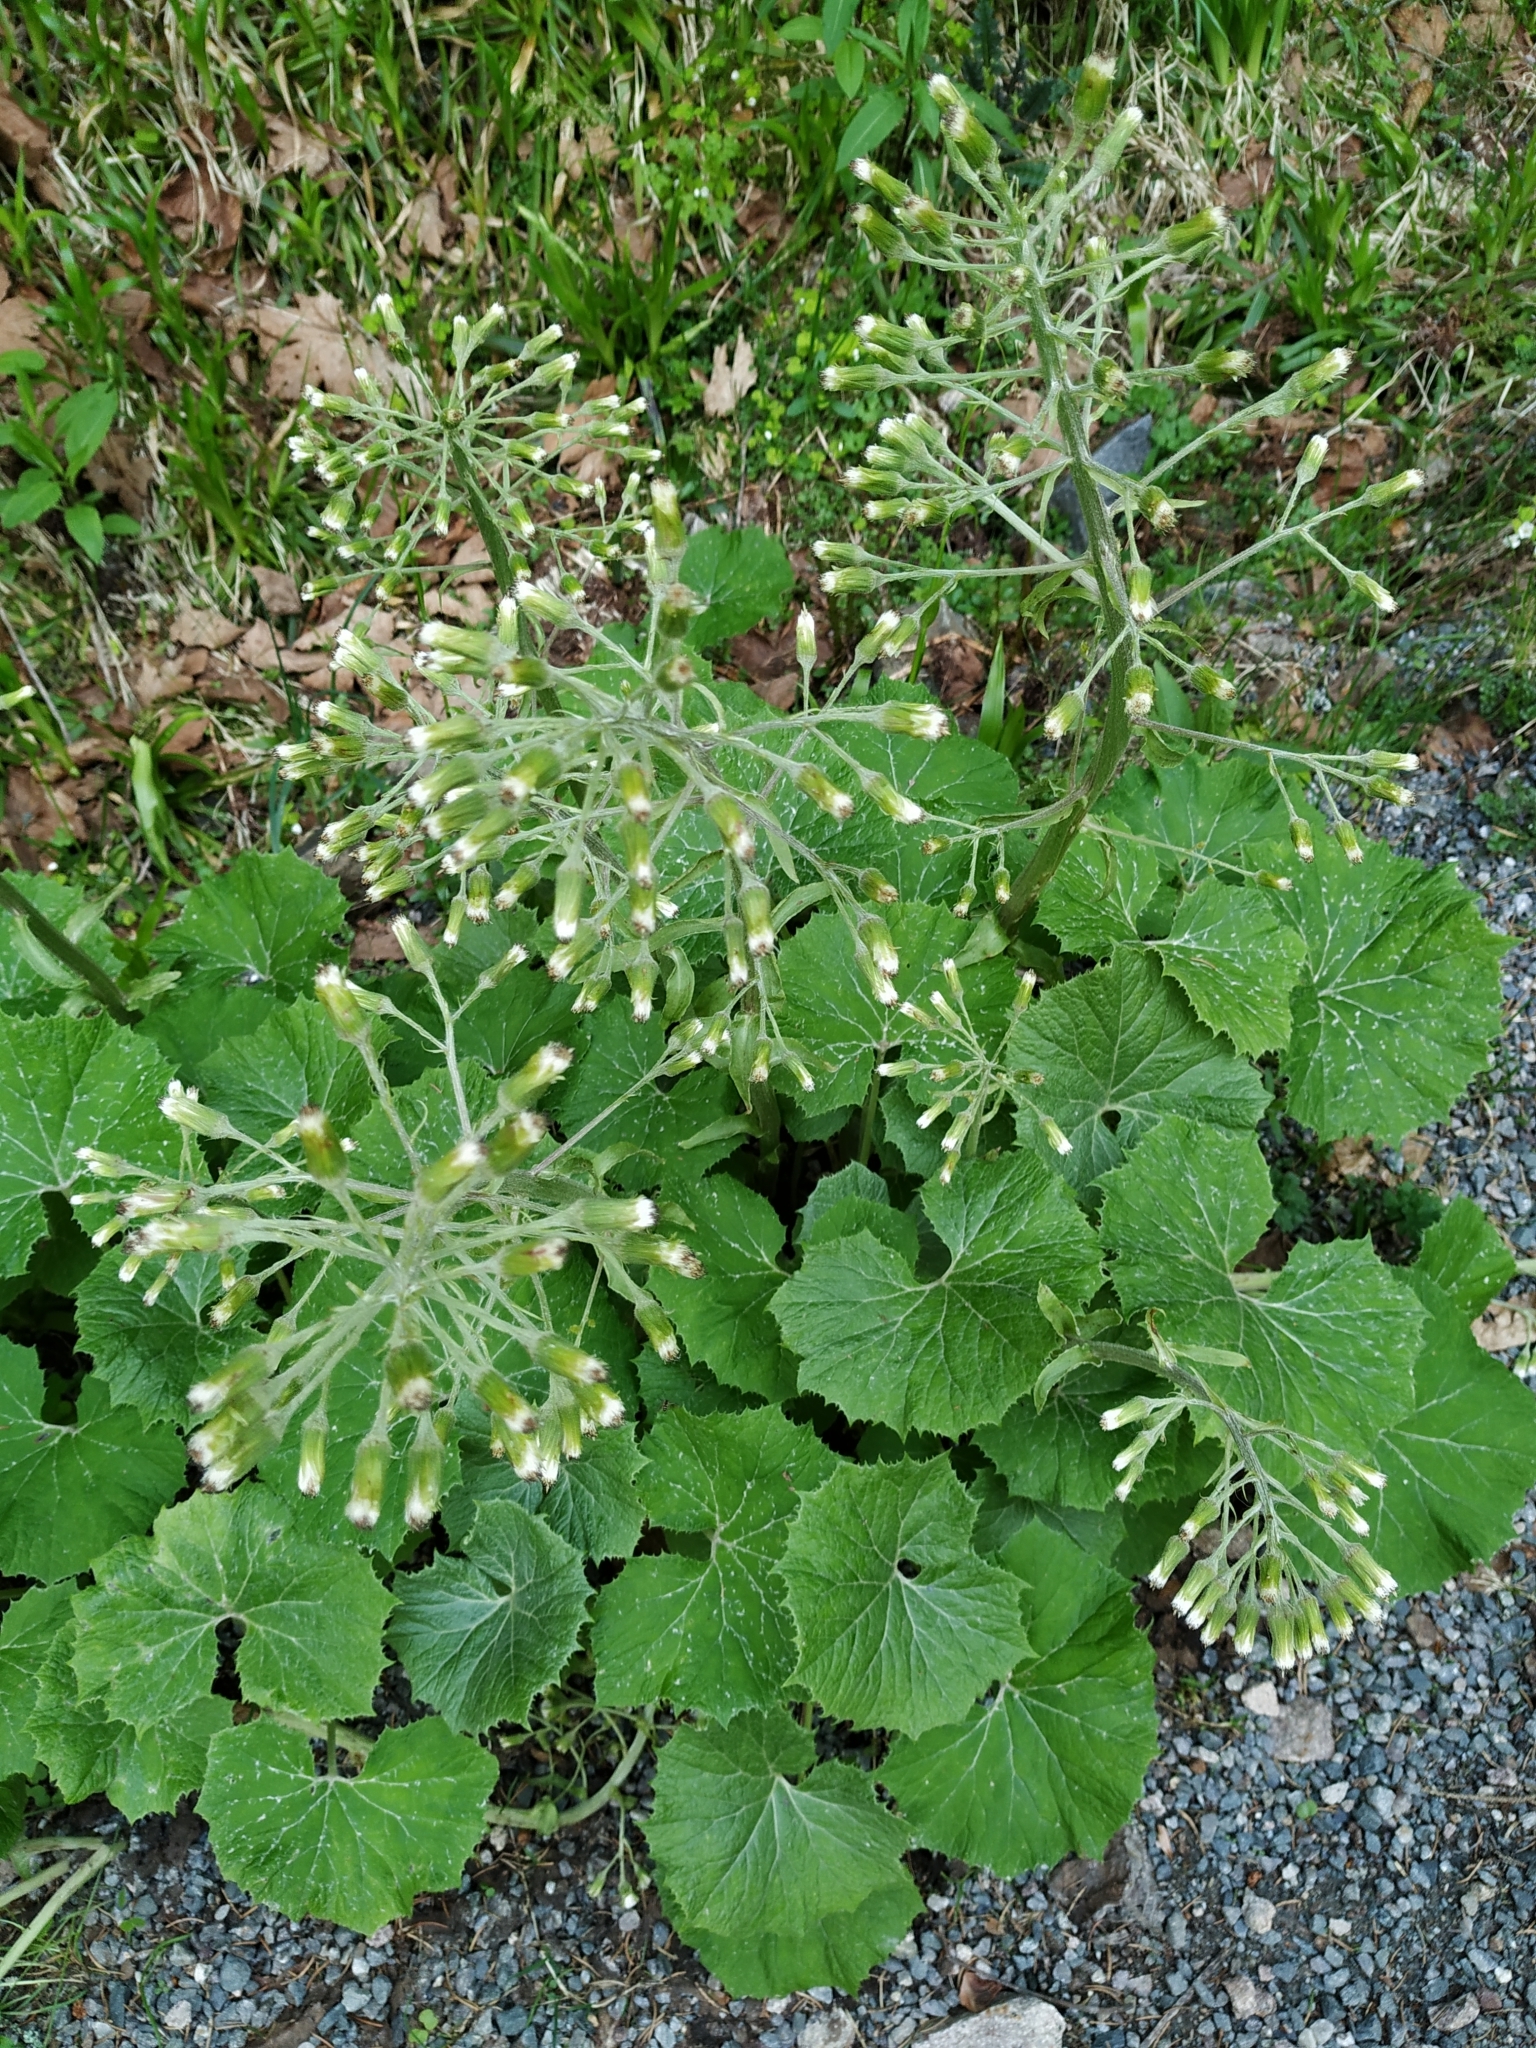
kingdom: Plantae
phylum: Tracheophyta
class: Magnoliopsida
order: Asterales
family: Asteraceae
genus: Petasites
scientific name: Petasites albus
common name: White butterbur
